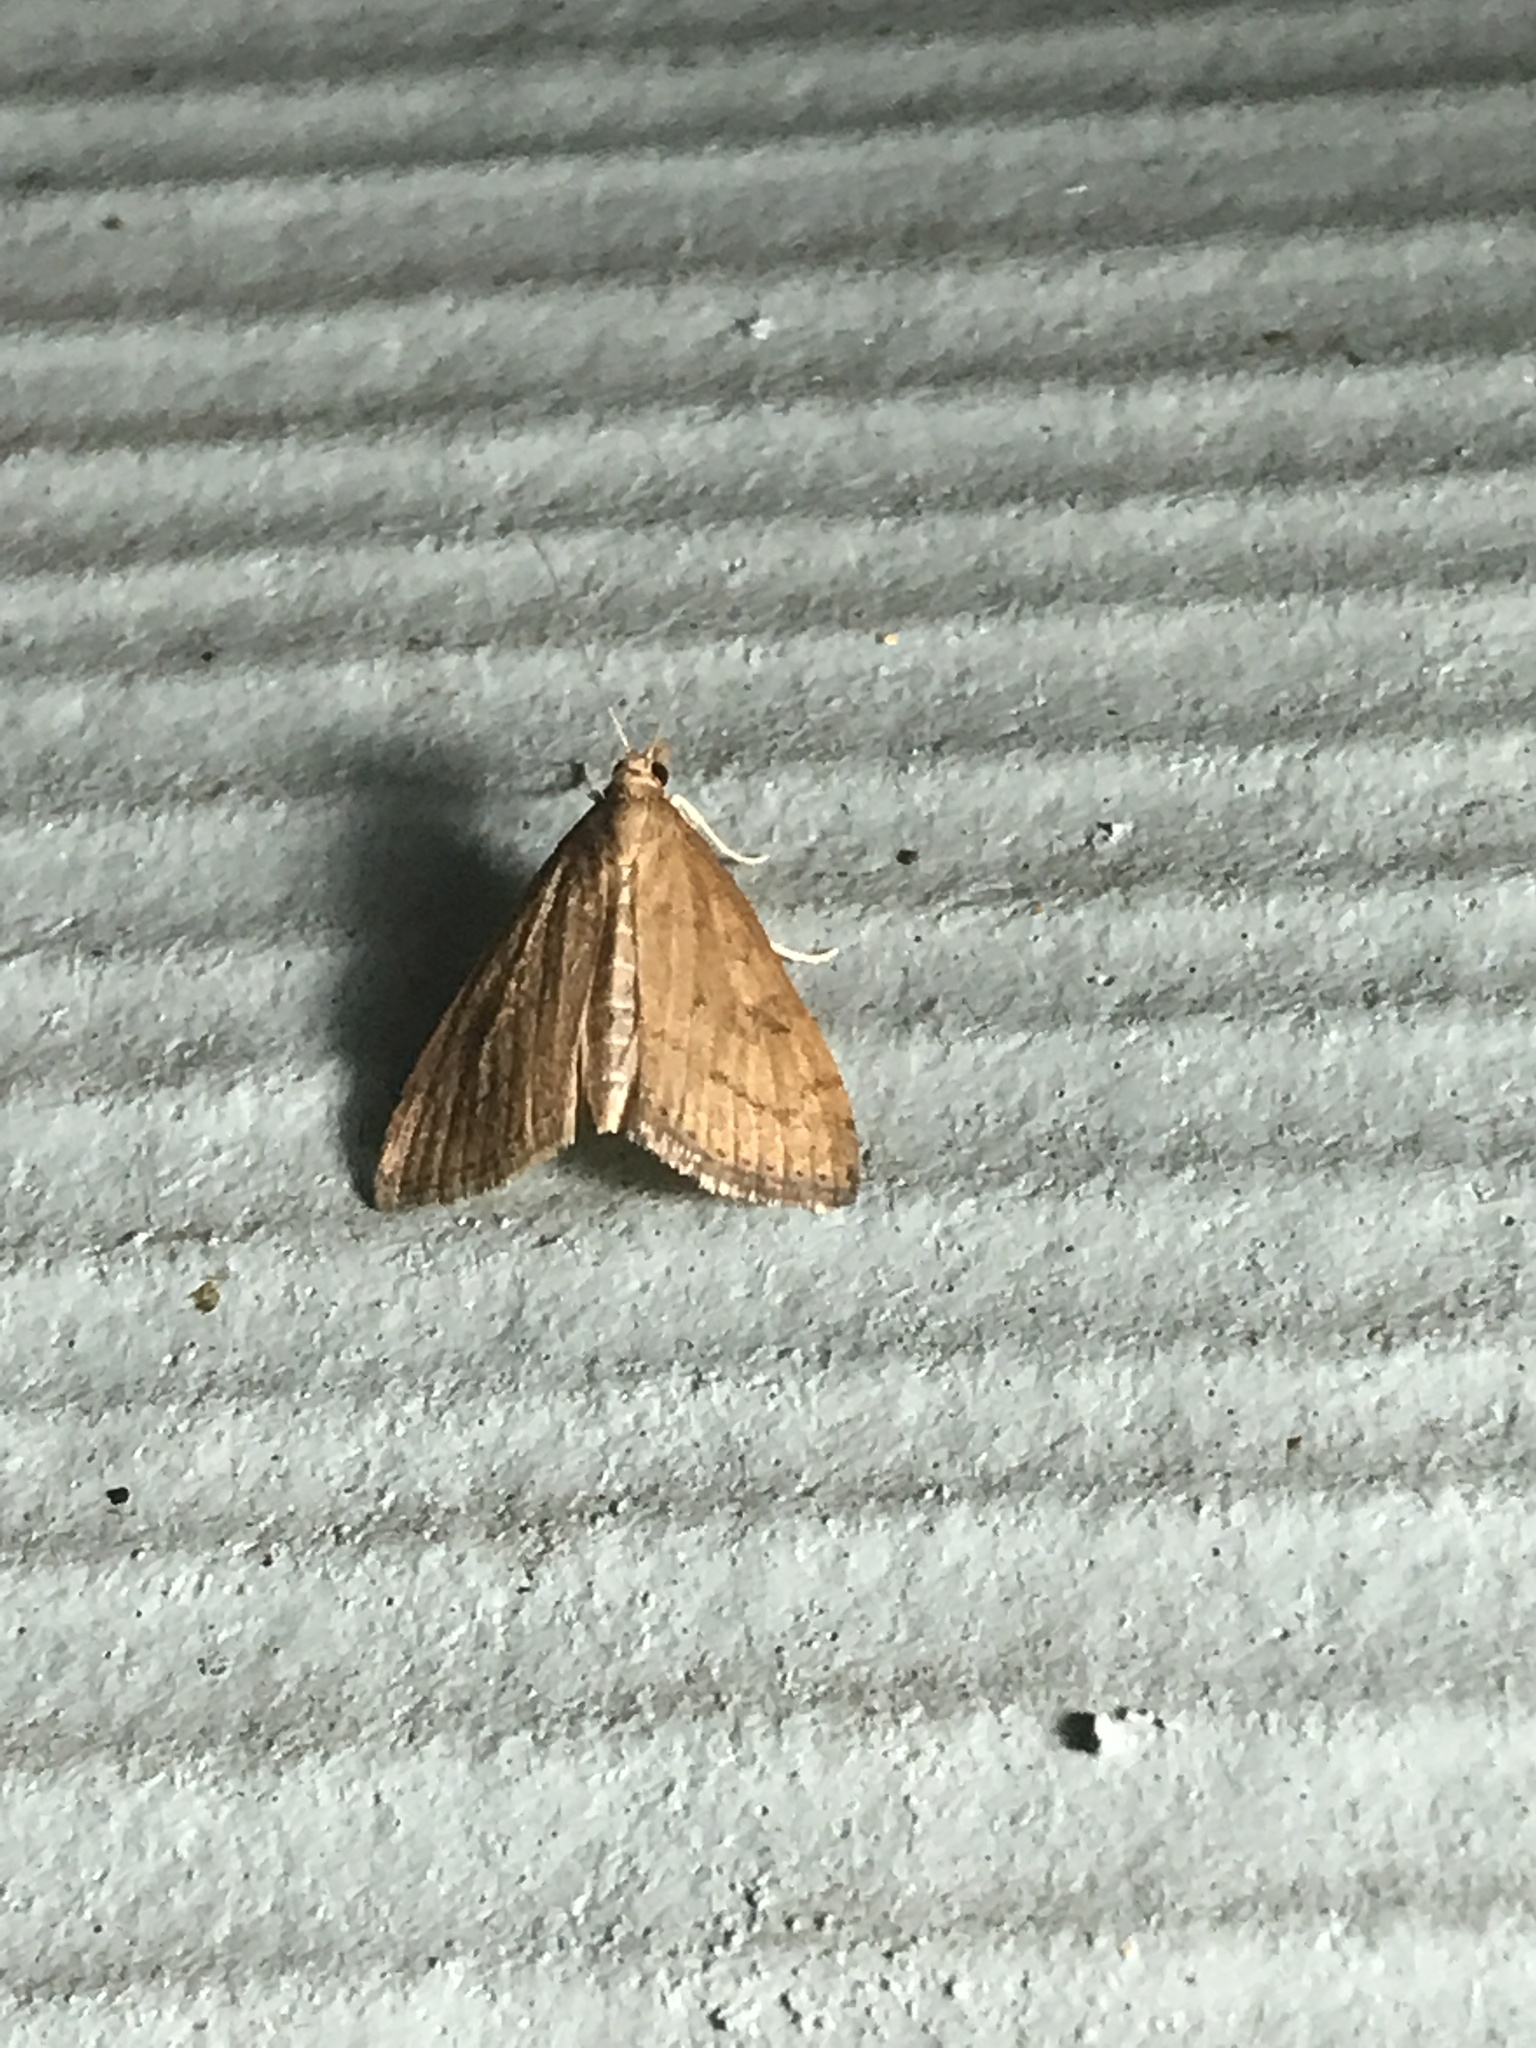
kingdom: Animalia
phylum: Arthropoda
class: Insecta
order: Lepidoptera
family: Crambidae
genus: Udea
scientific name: Udea rubigalis
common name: Celery leaftier moth
